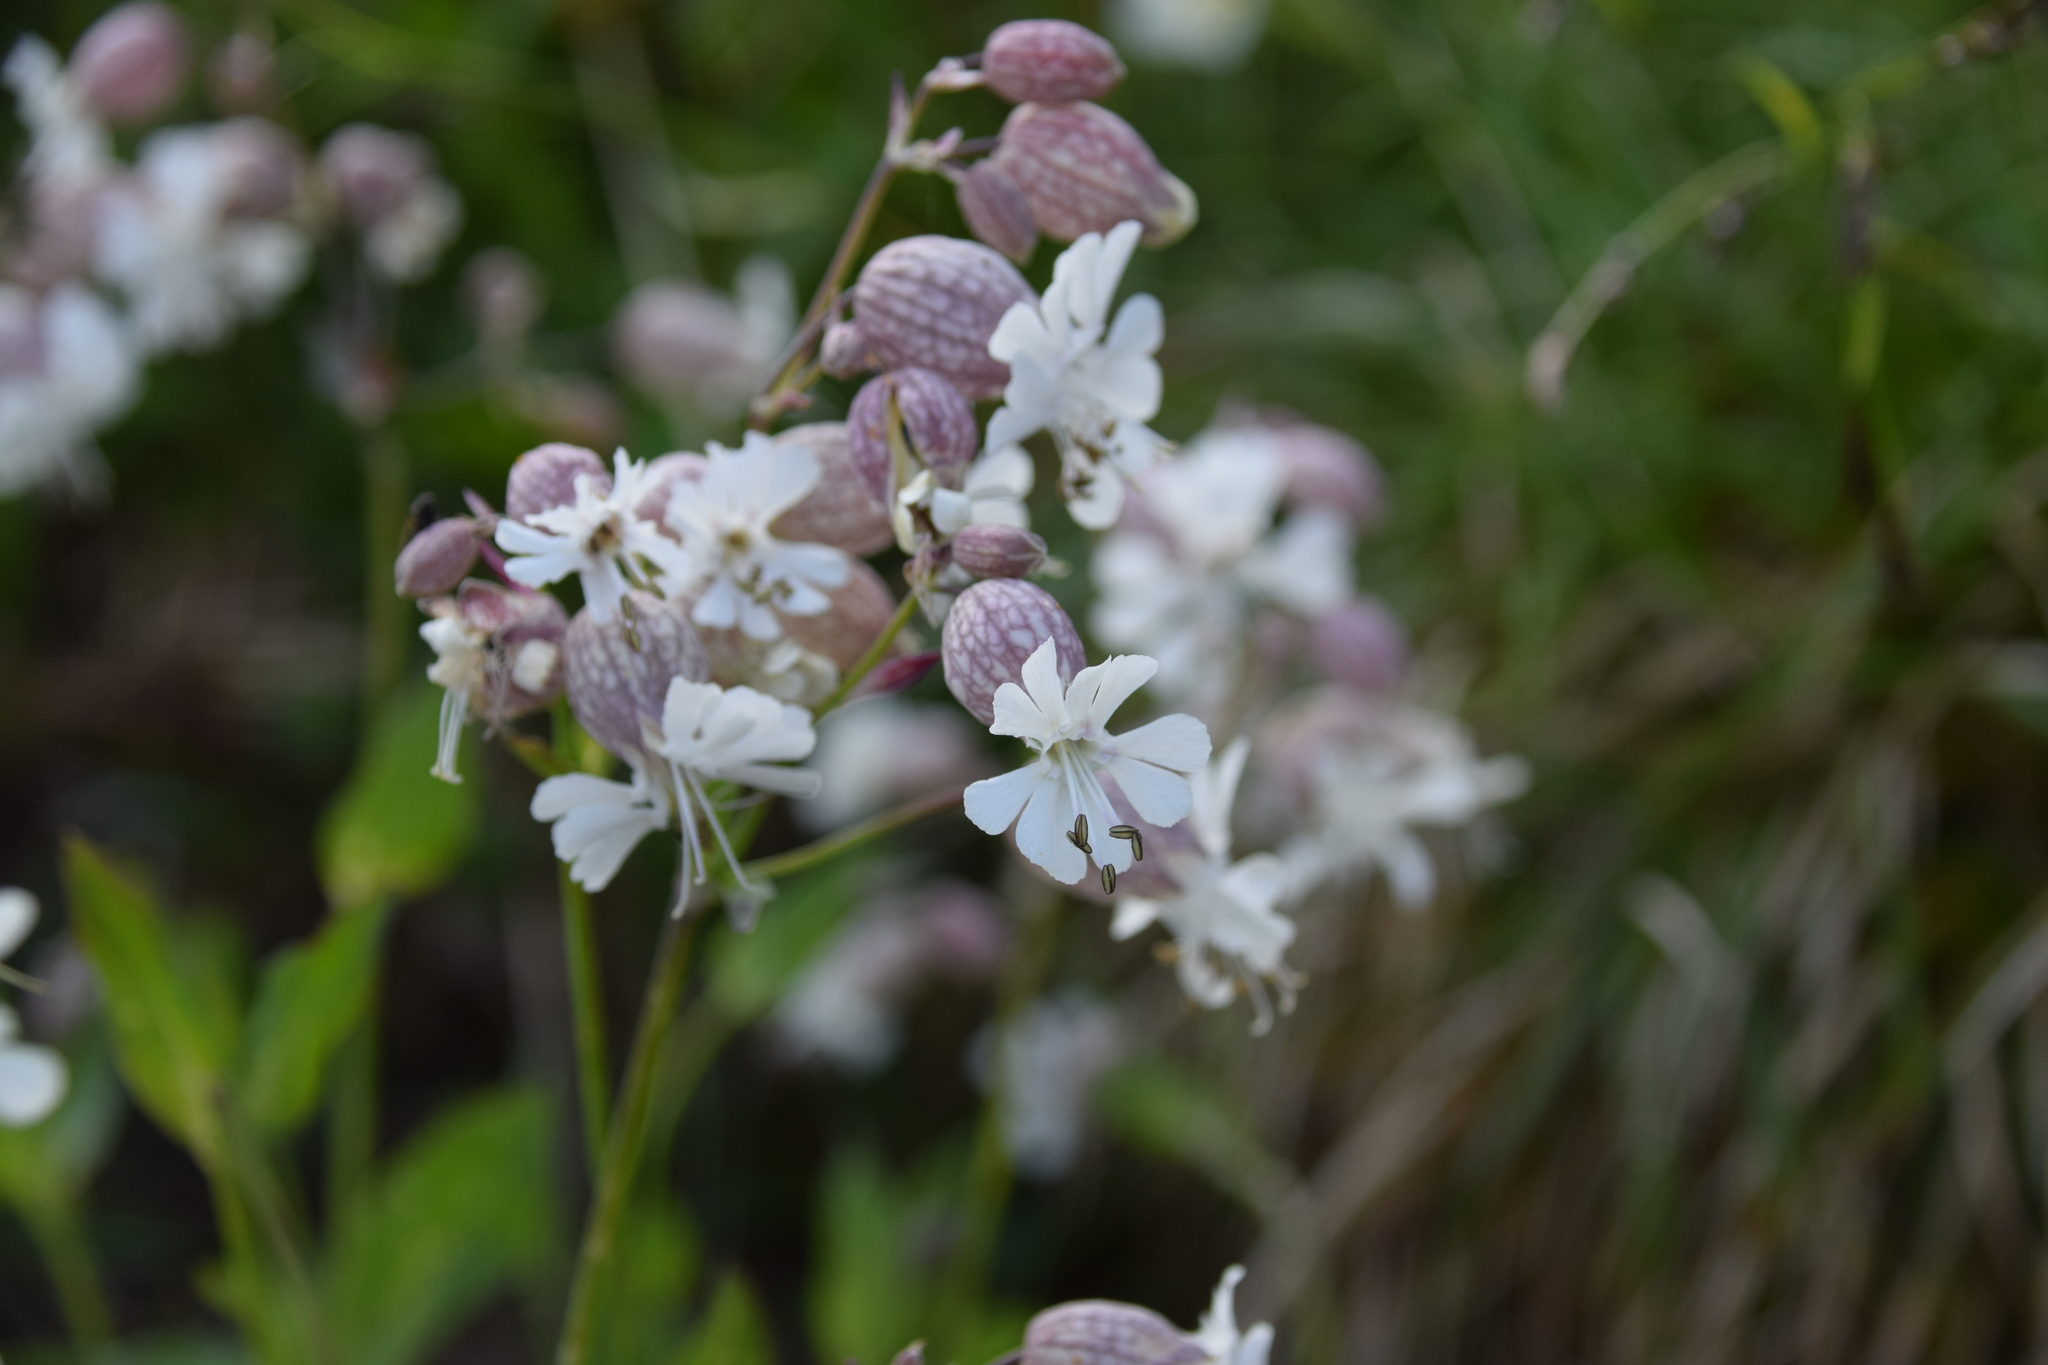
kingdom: Plantae
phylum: Tracheophyta
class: Magnoliopsida
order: Caryophyllales
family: Caryophyllaceae
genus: Silene
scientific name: Silene vulgaris
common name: Bladder campion
